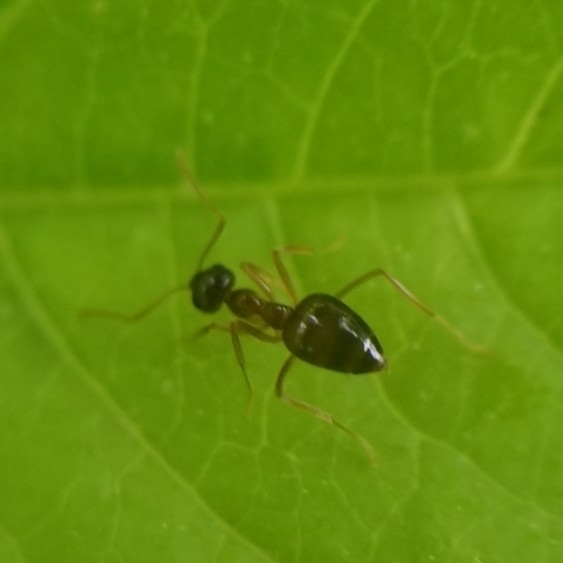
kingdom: Animalia
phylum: Arthropoda
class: Insecta
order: Hymenoptera
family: Formicidae
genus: Prenolepis
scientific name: Prenolepis imparis
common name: Small honey ant
